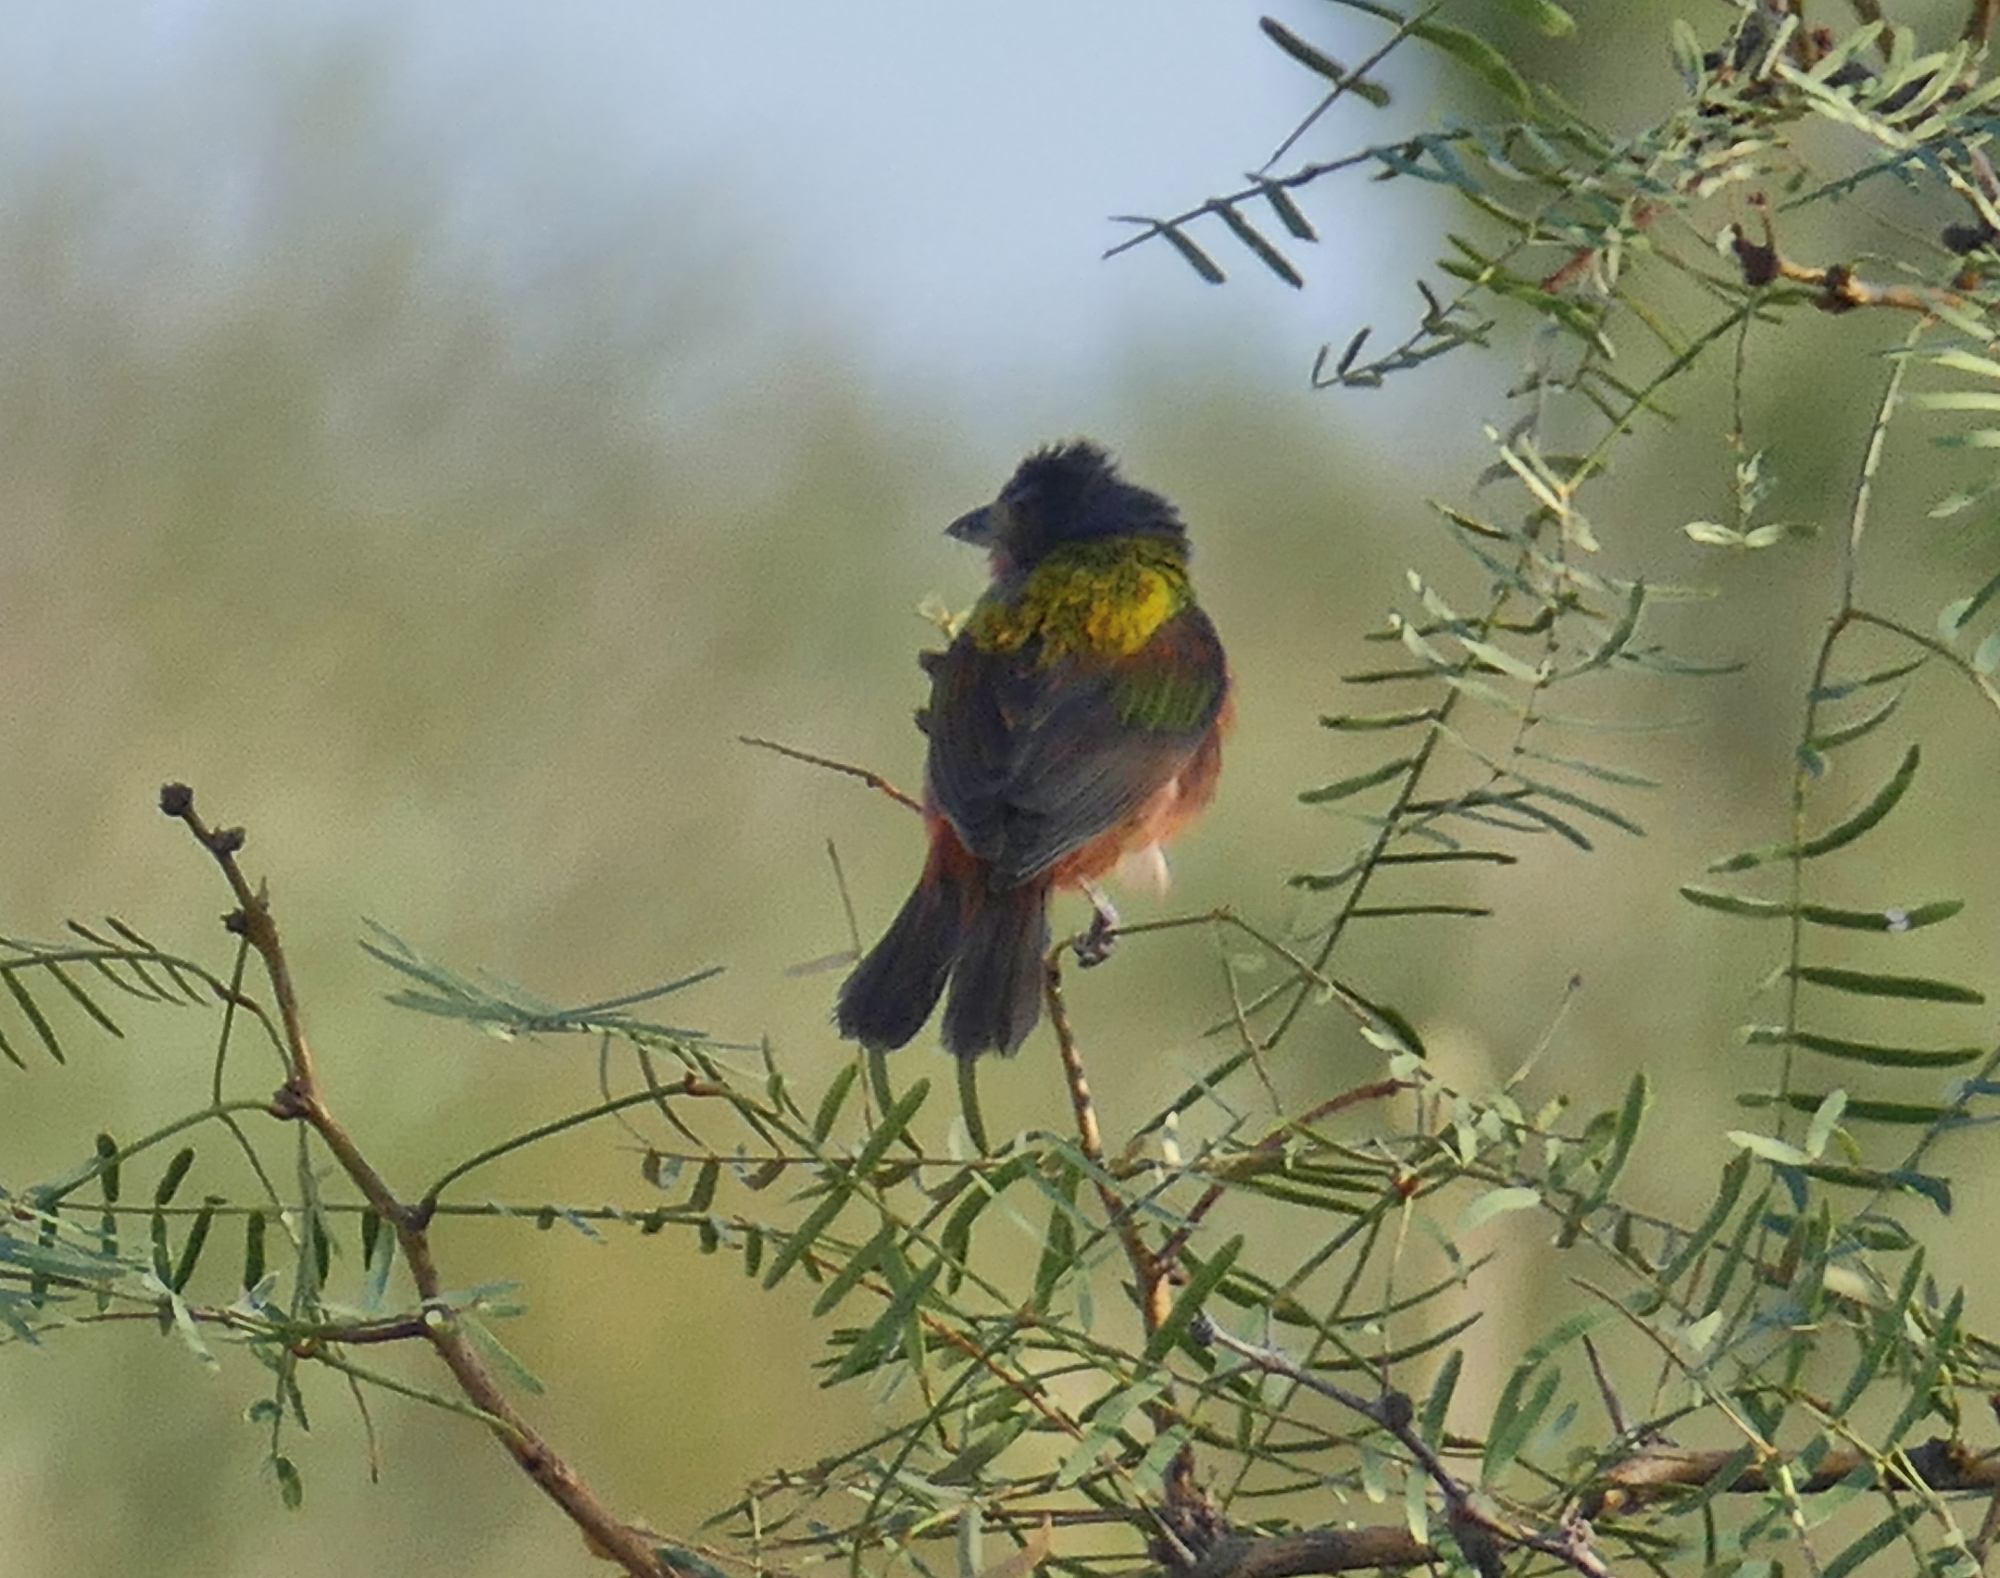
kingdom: Animalia
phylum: Chordata
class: Aves
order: Passeriformes
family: Cardinalidae
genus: Passerina
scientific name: Passerina ciris
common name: Painted bunting
